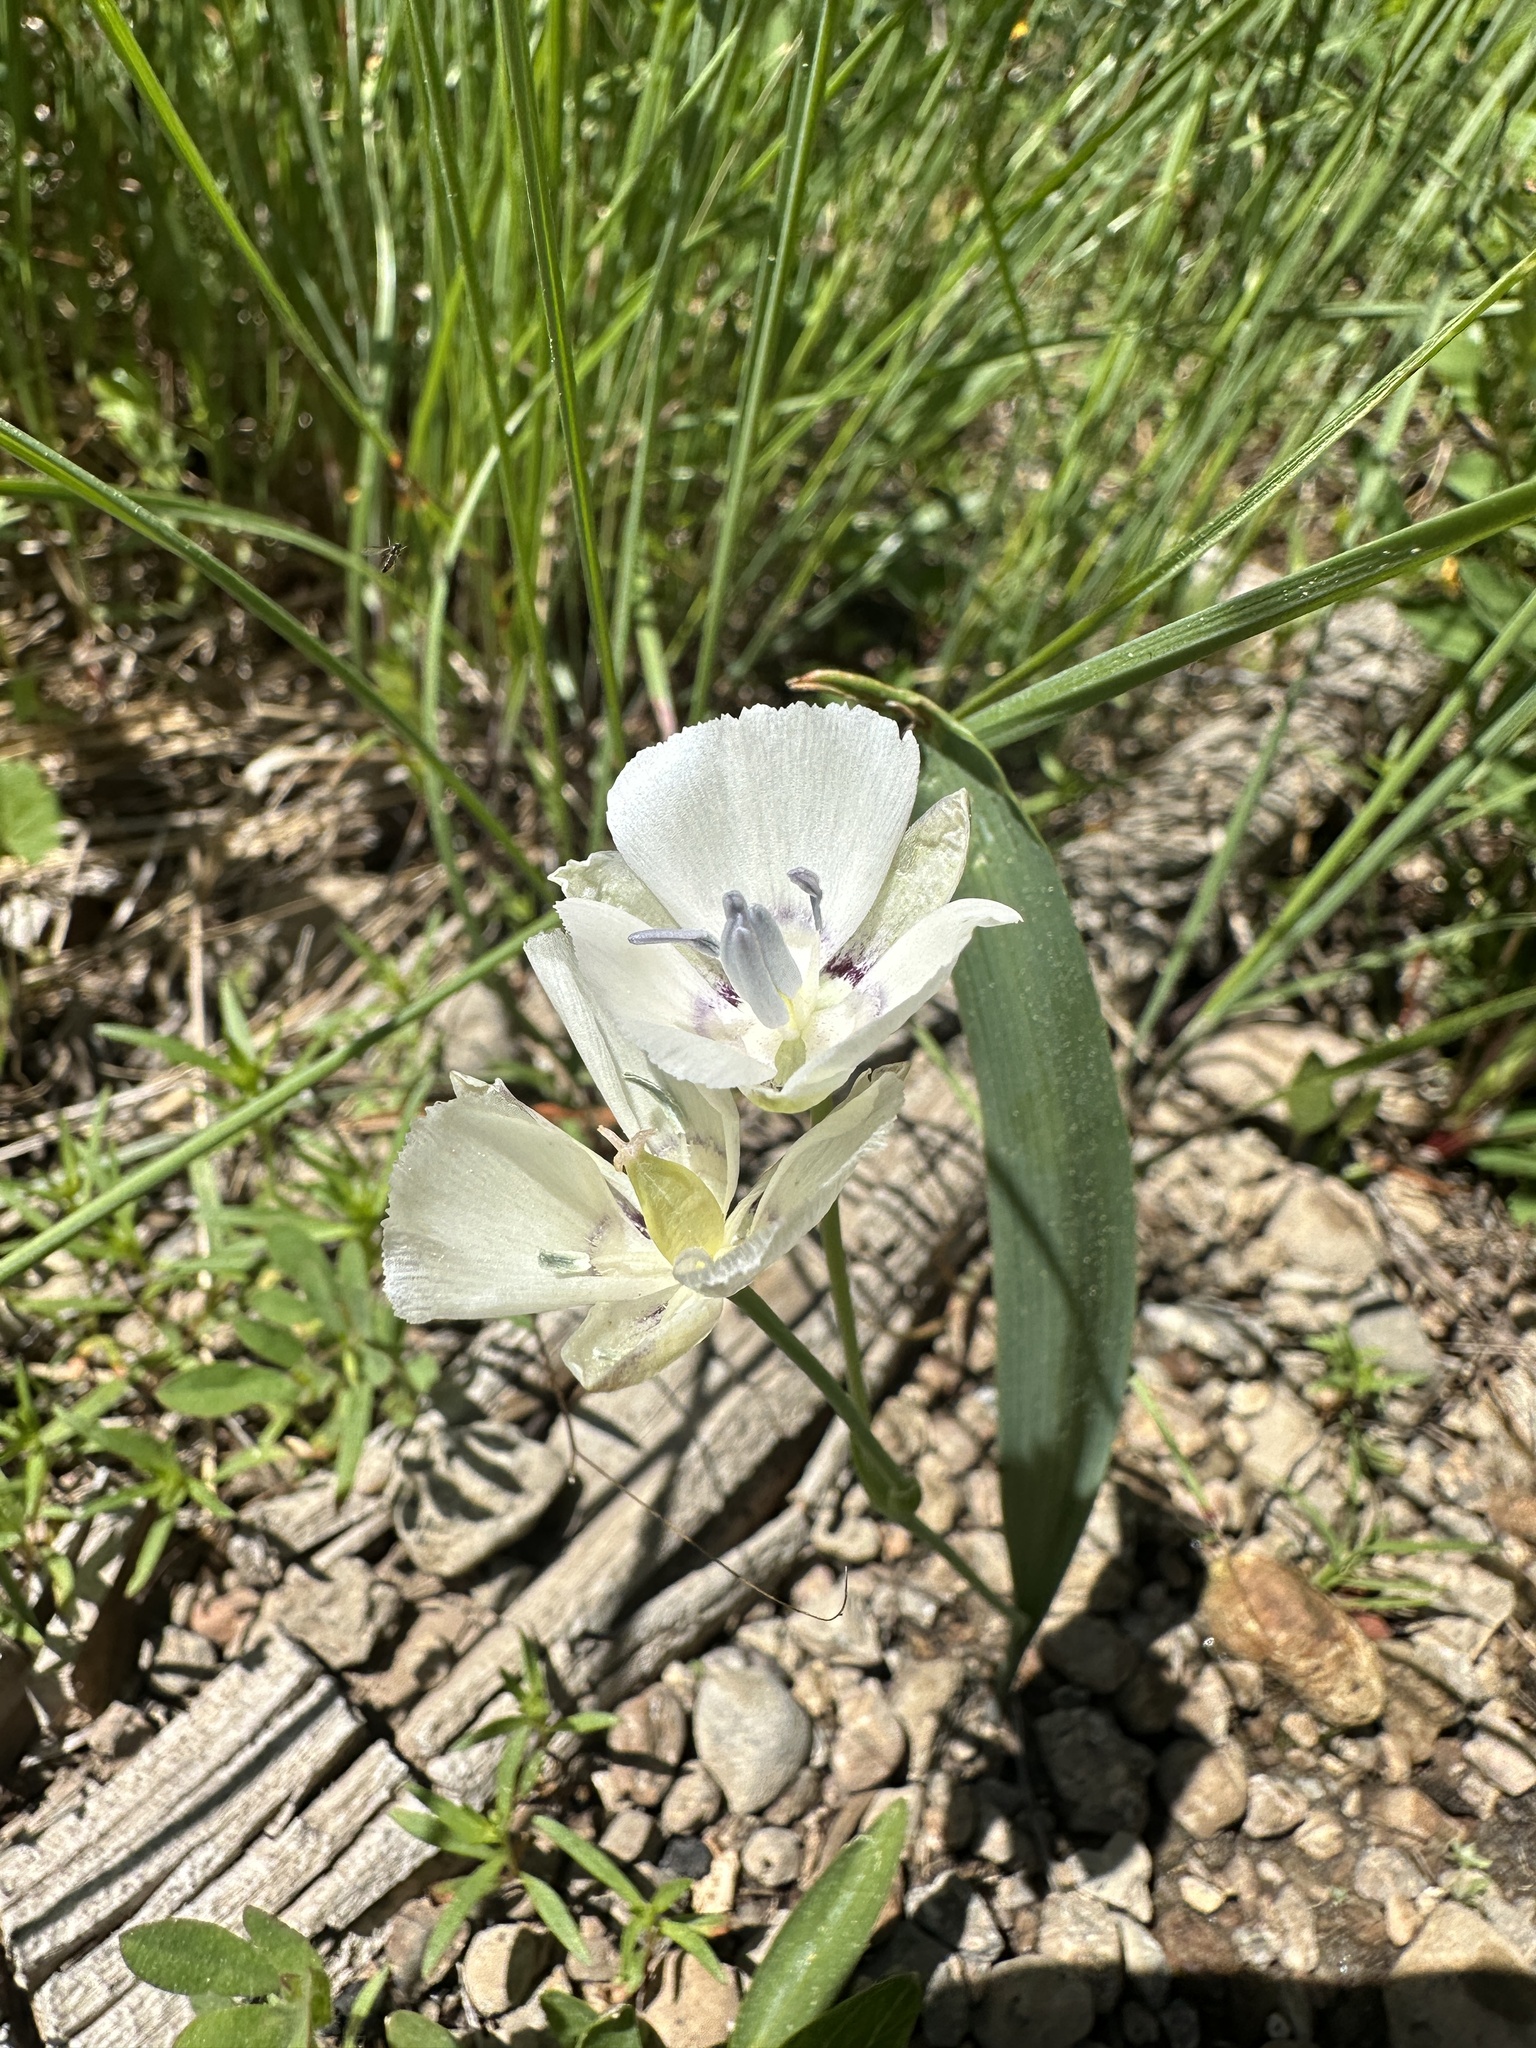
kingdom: Plantae
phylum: Tracheophyta
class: Liliopsida
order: Liliales
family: Liliaceae
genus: Calochortus
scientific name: Calochortus minimus
